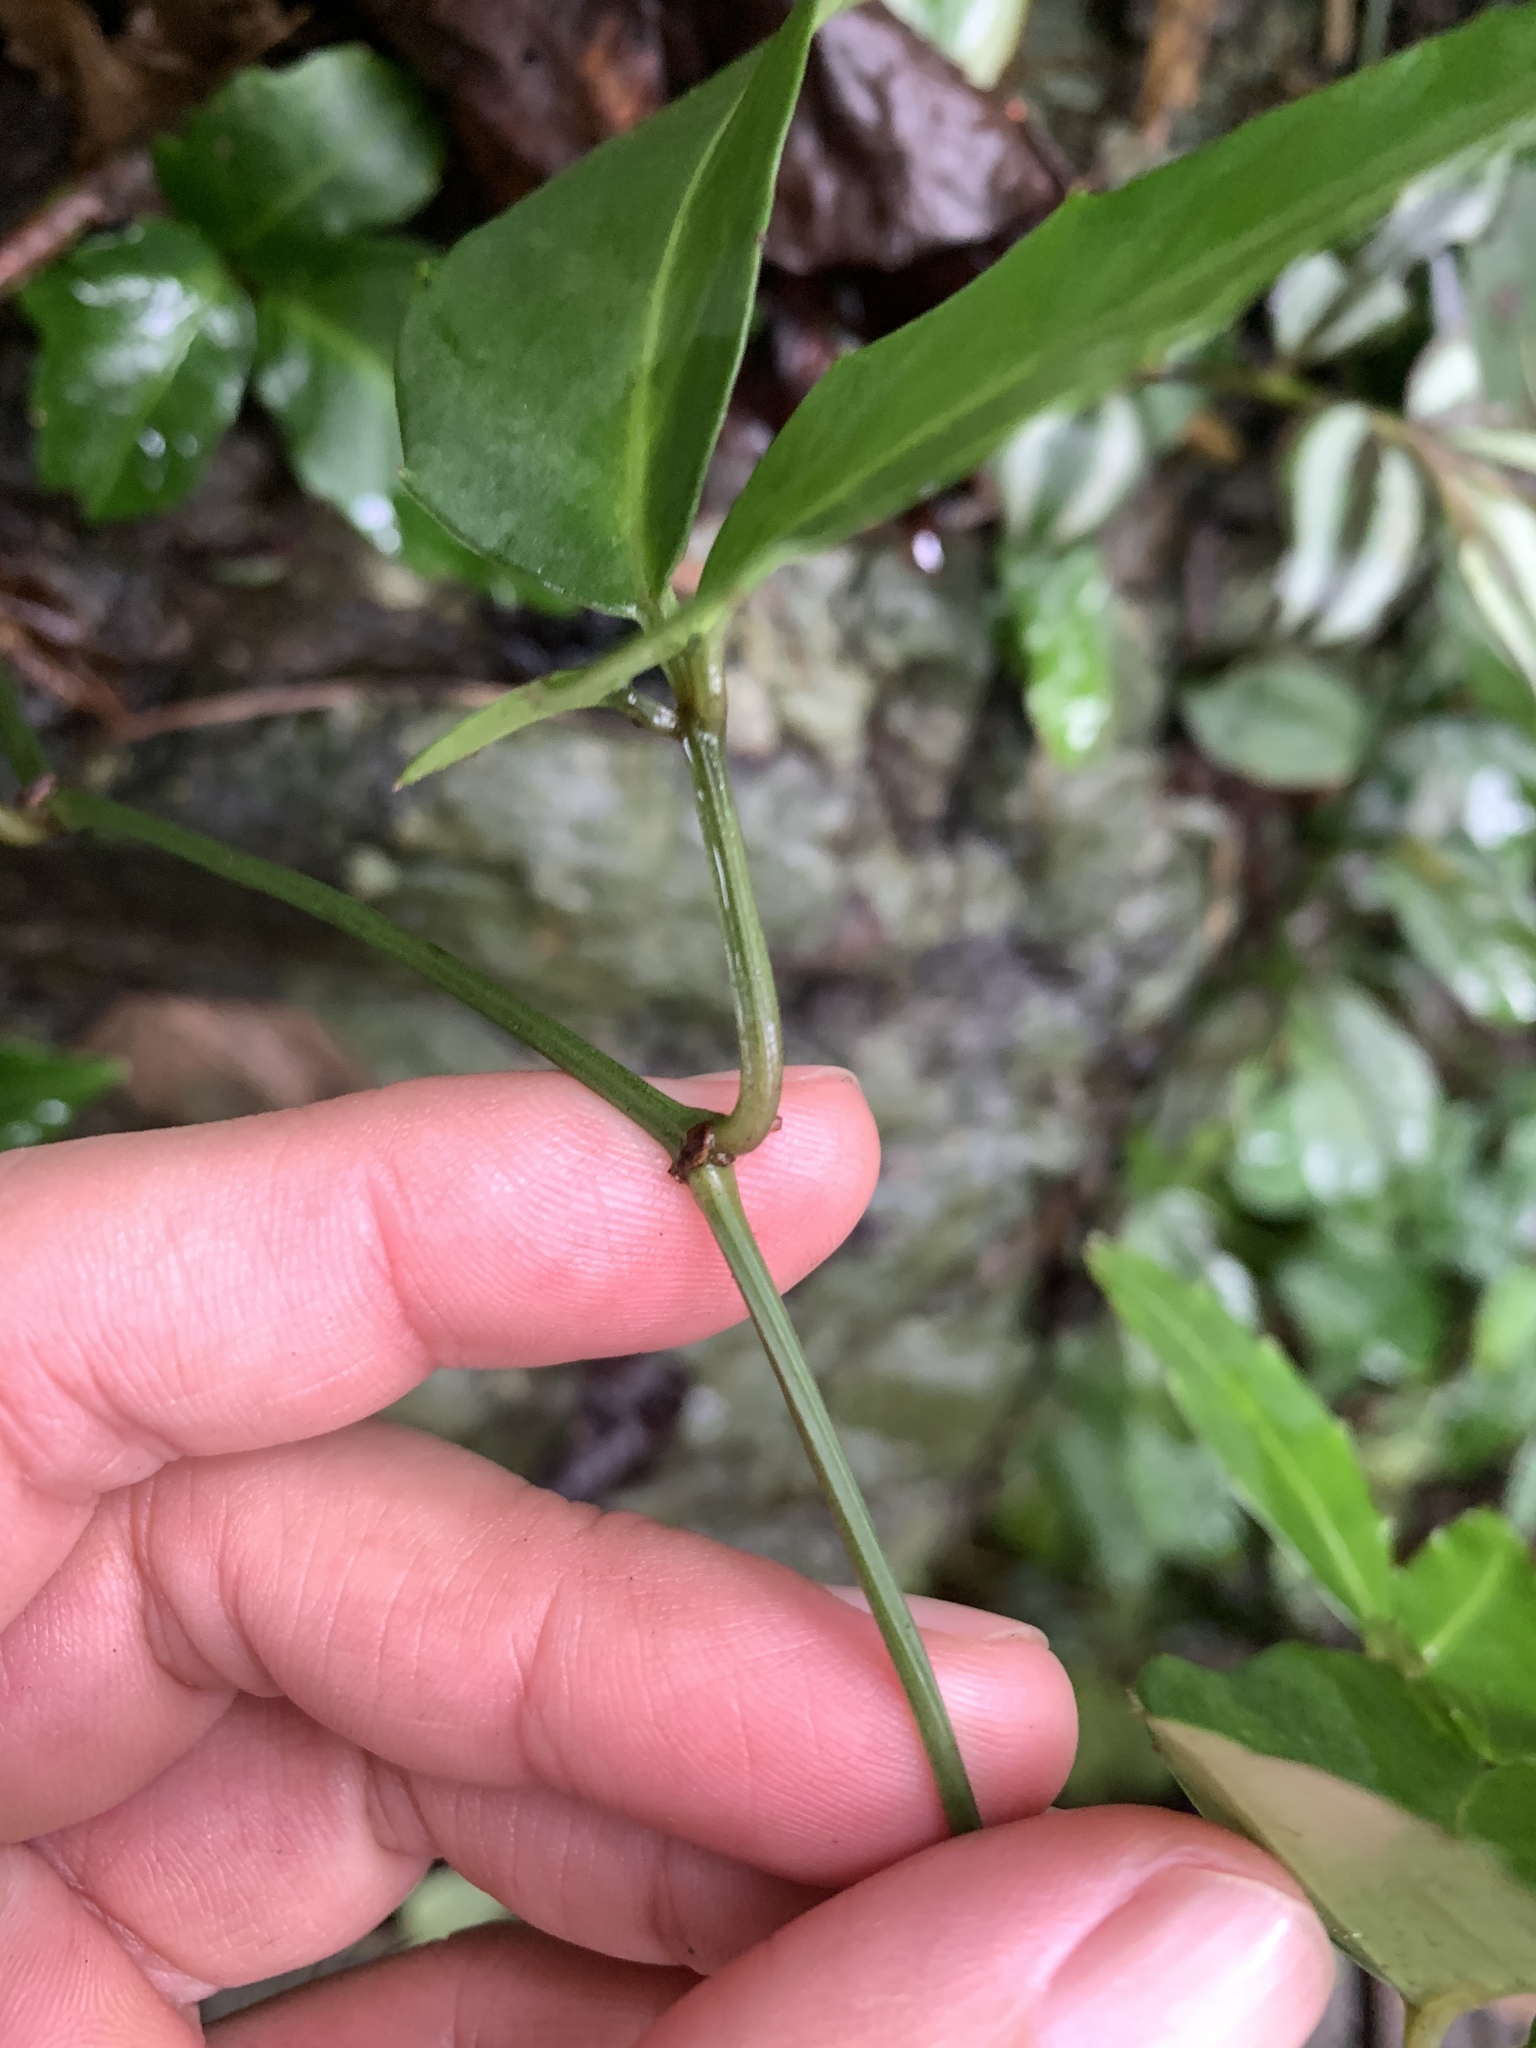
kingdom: Plantae
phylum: Tracheophyta
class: Magnoliopsida
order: Vitales
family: Vitaceae
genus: Tetrastigma
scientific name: Tetrastigma formosanum
